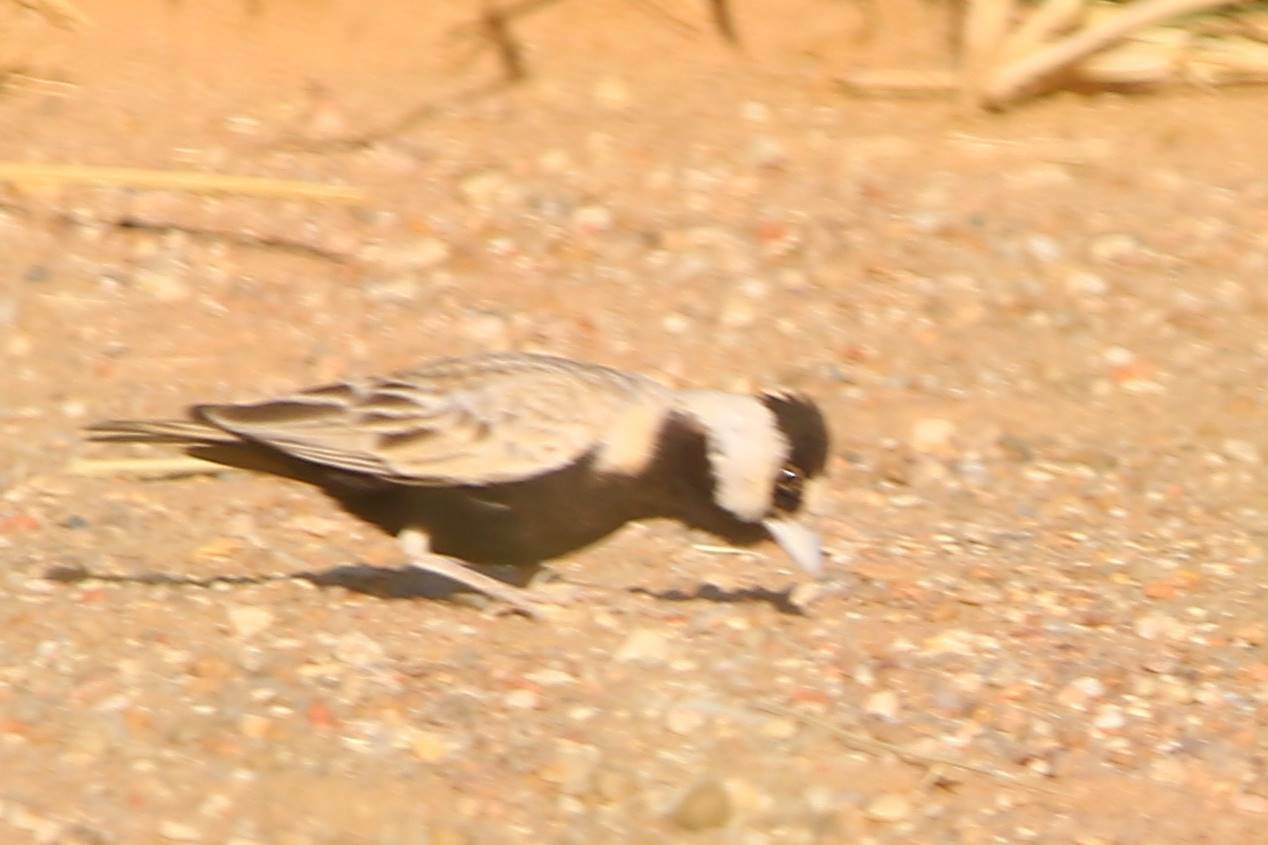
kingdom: Animalia
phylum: Chordata
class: Aves
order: Passeriformes
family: Alaudidae
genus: Eremopterix
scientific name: Eremopterix nigriceps
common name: Black-crowned sparrow-lark
